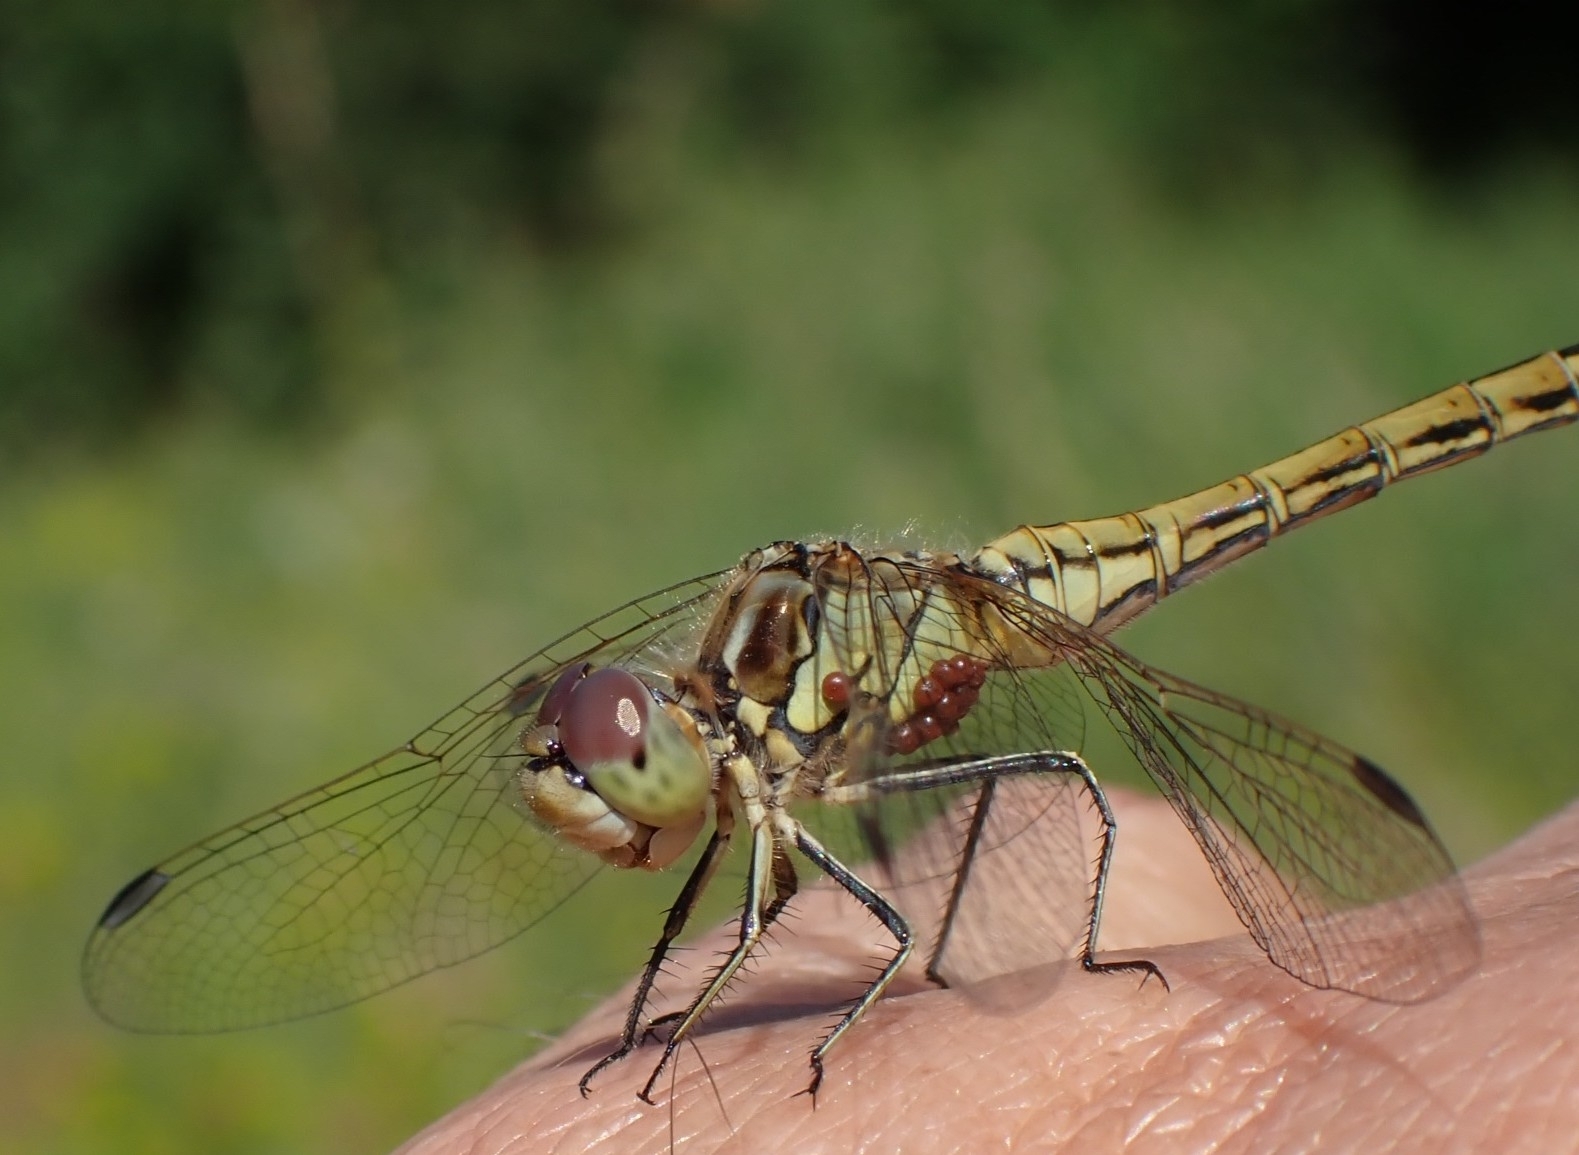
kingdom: Animalia
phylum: Arthropoda
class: Insecta
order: Odonata
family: Libellulidae
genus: Sympetrum
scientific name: Sympetrum vulgatum
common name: Vagrant darter
